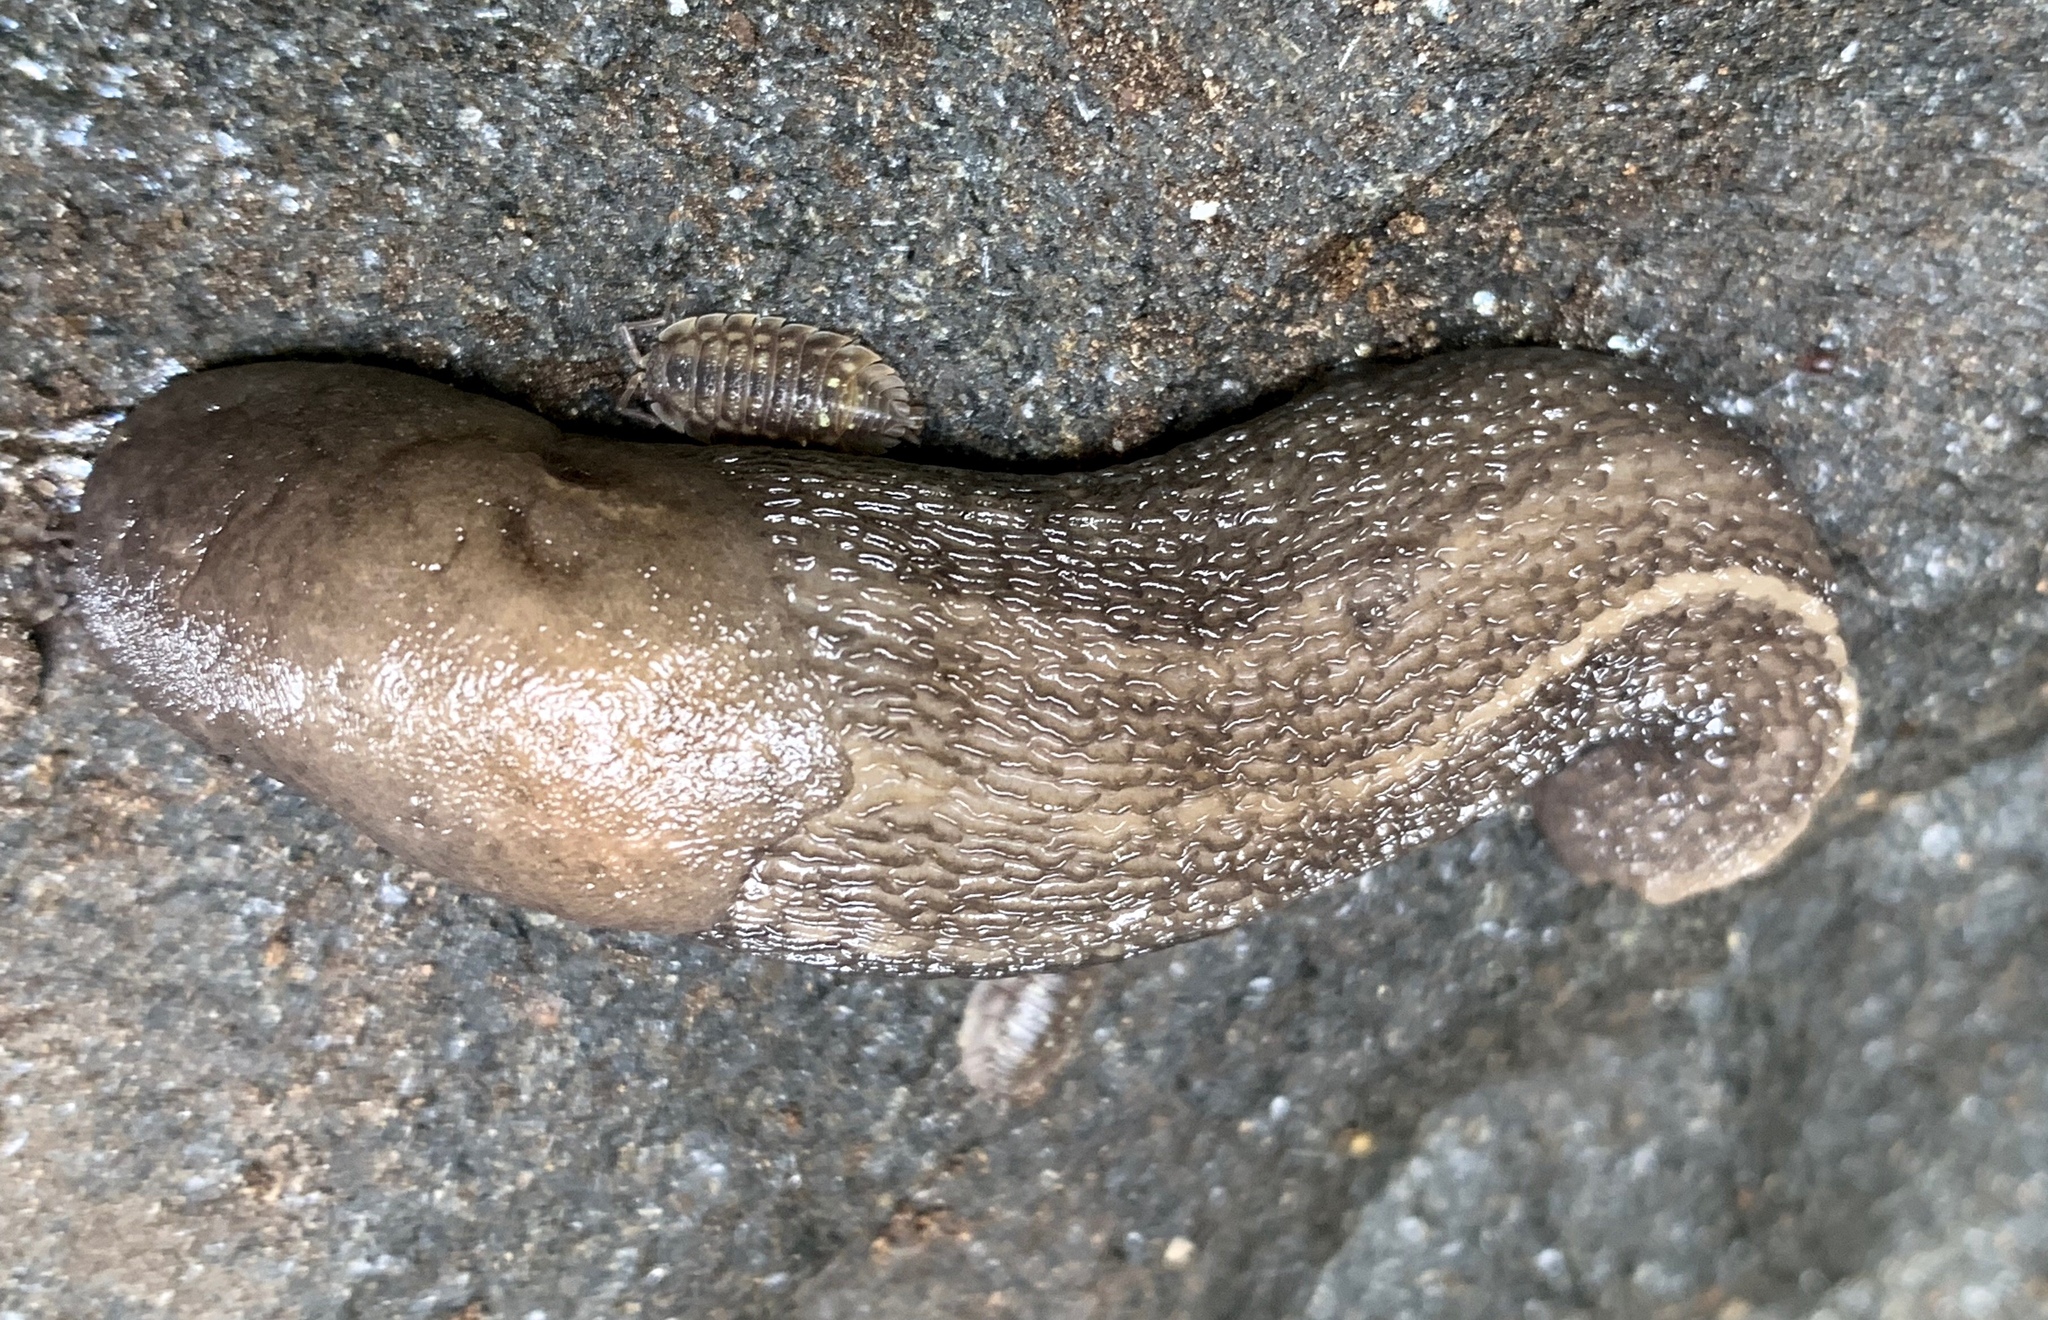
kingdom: Animalia
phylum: Mollusca
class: Gastropoda
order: Stylommatophora
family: Limacidae
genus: Limax
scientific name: Limax maximus
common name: Great grey slug
